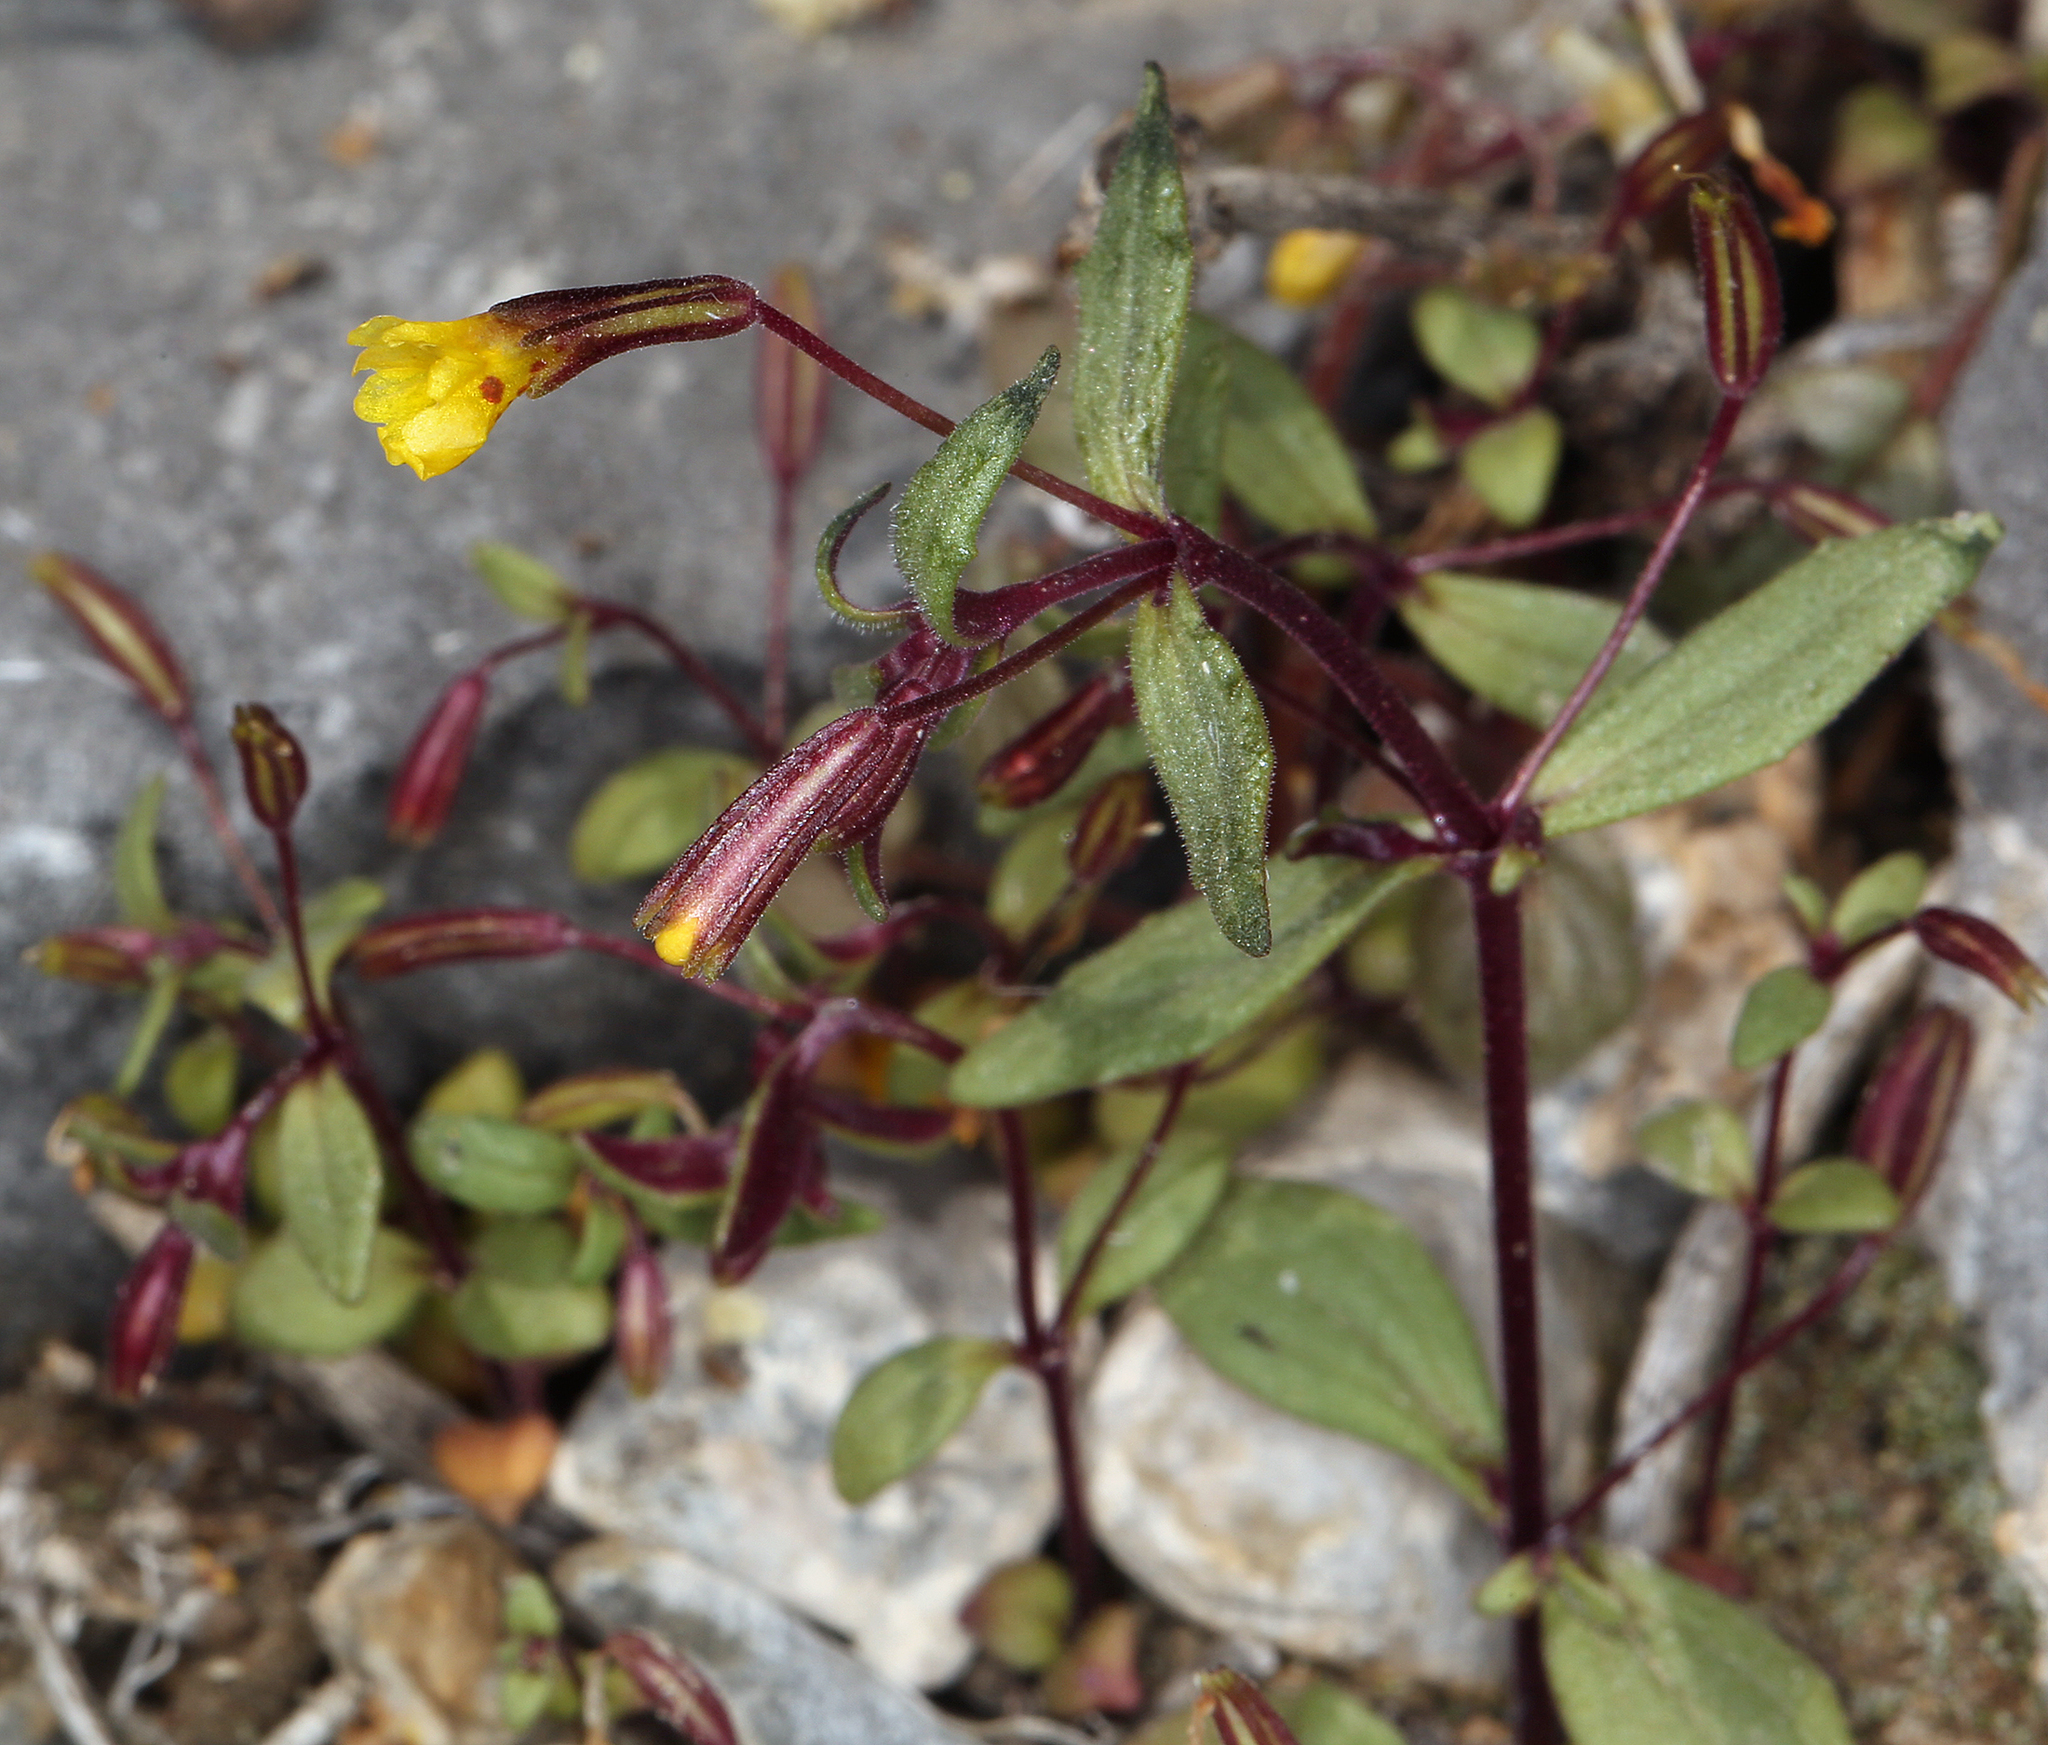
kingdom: Plantae
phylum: Tracheophyta
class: Magnoliopsida
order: Lamiales
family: Phrymaceae
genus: Erythranthe
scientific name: Erythranthe rubella
